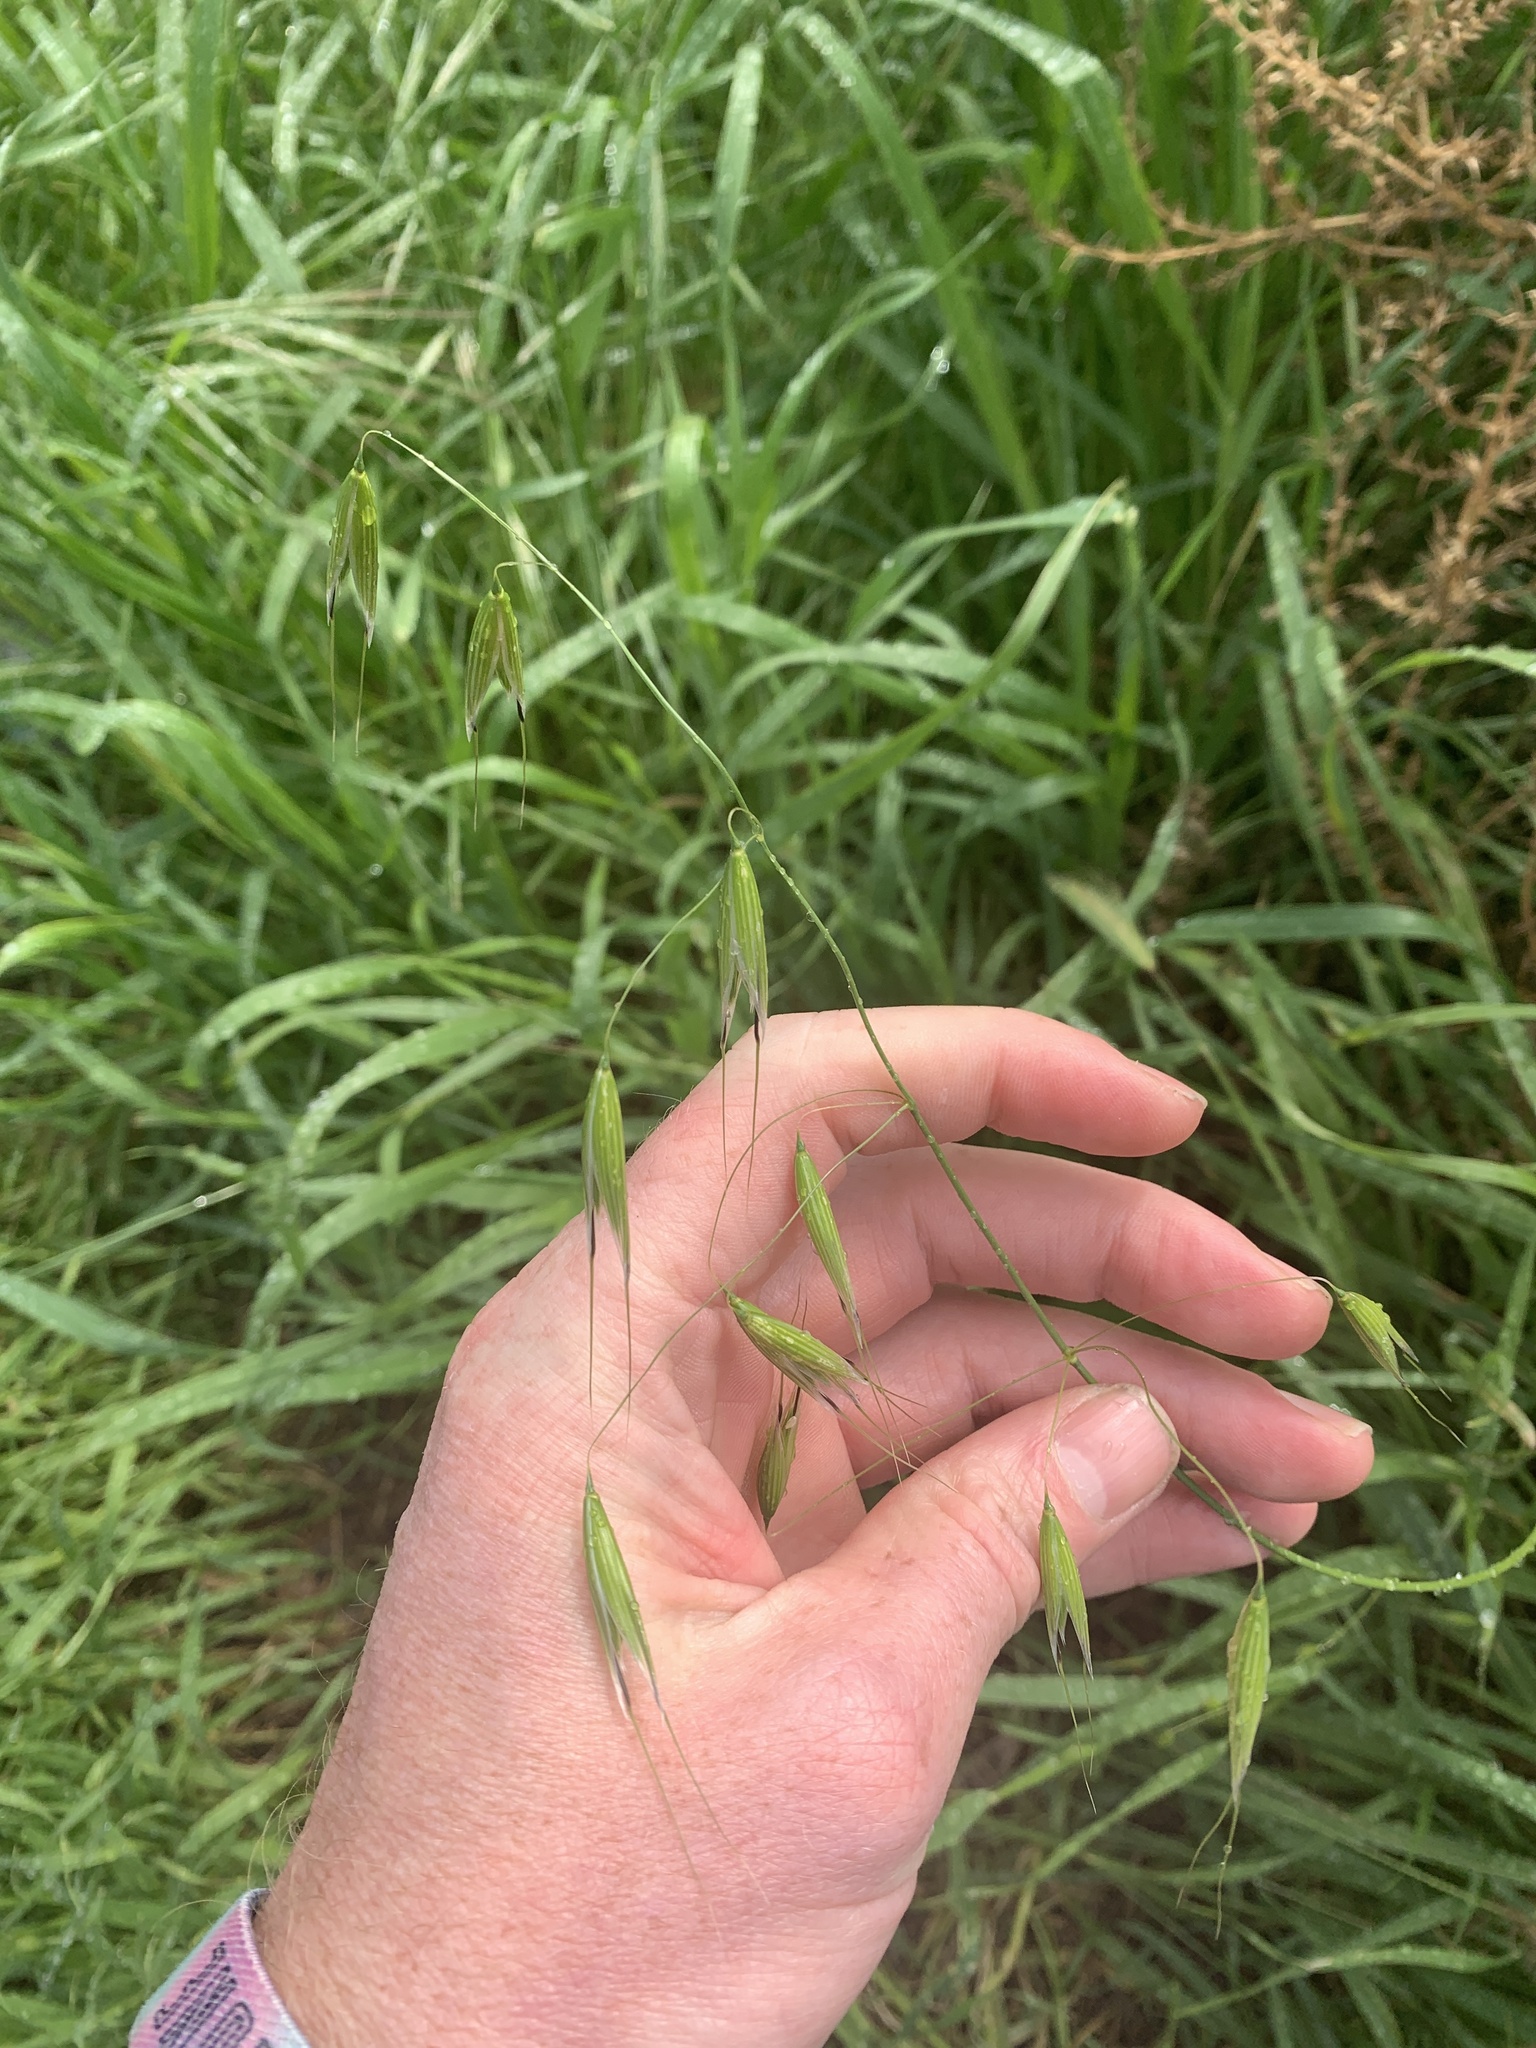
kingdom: Plantae
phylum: Tracheophyta
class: Liliopsida
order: Poales
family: Poaceae
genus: Avena
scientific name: Avena fatua
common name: Wild oat
